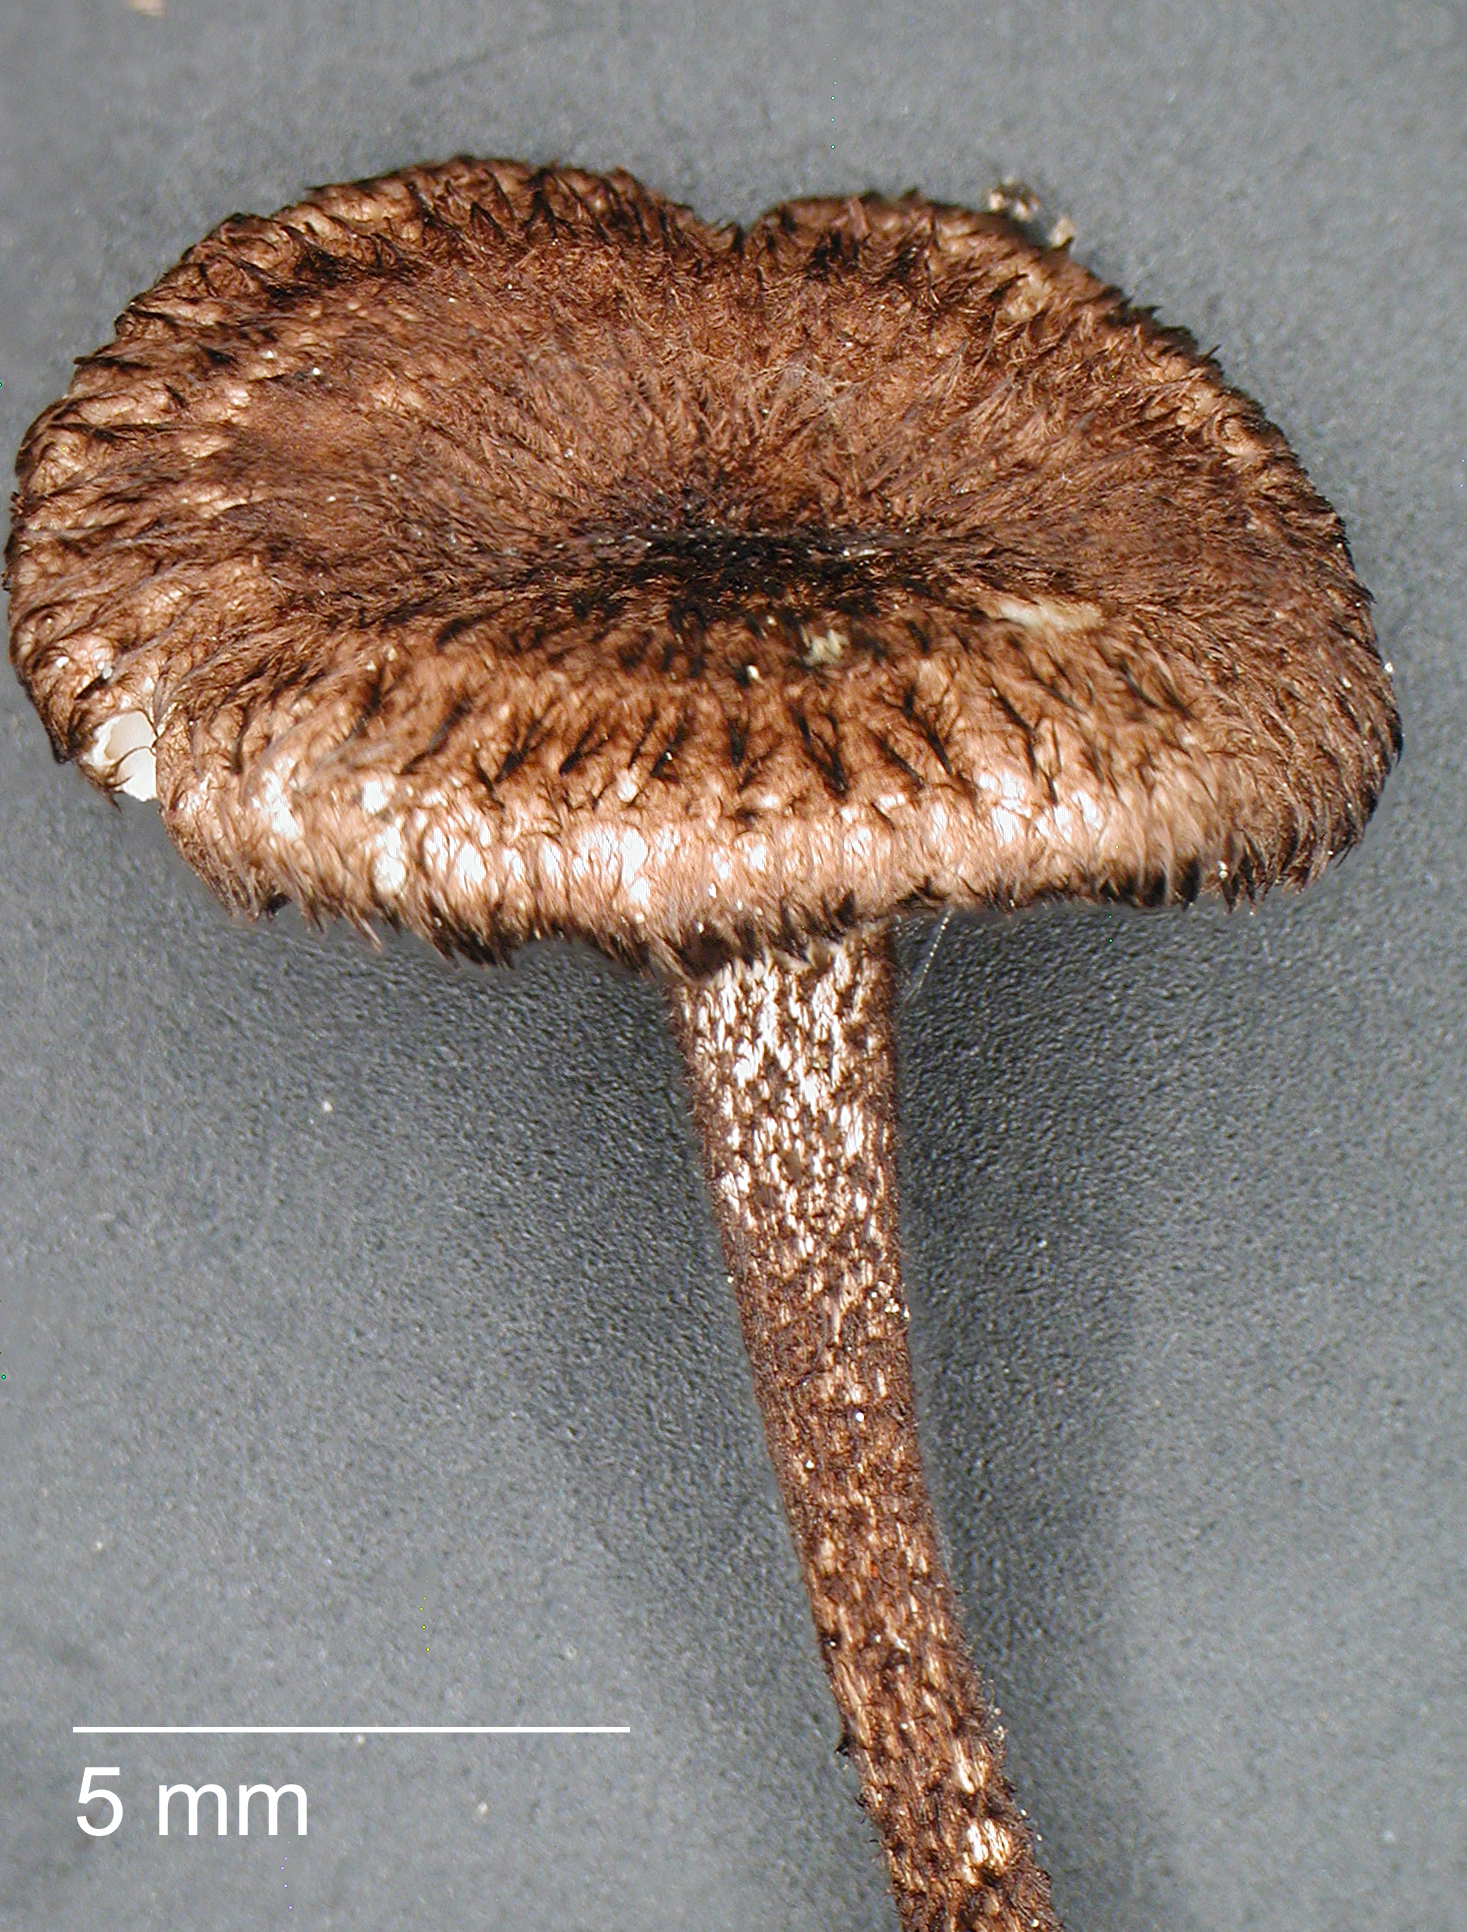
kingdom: Fungi
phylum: Basidiomycota
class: Agaricomycetes
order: Agaricales
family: Marasmiaceae
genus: Crinipellis
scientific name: Crinipellis scabella
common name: Hairy parachute
